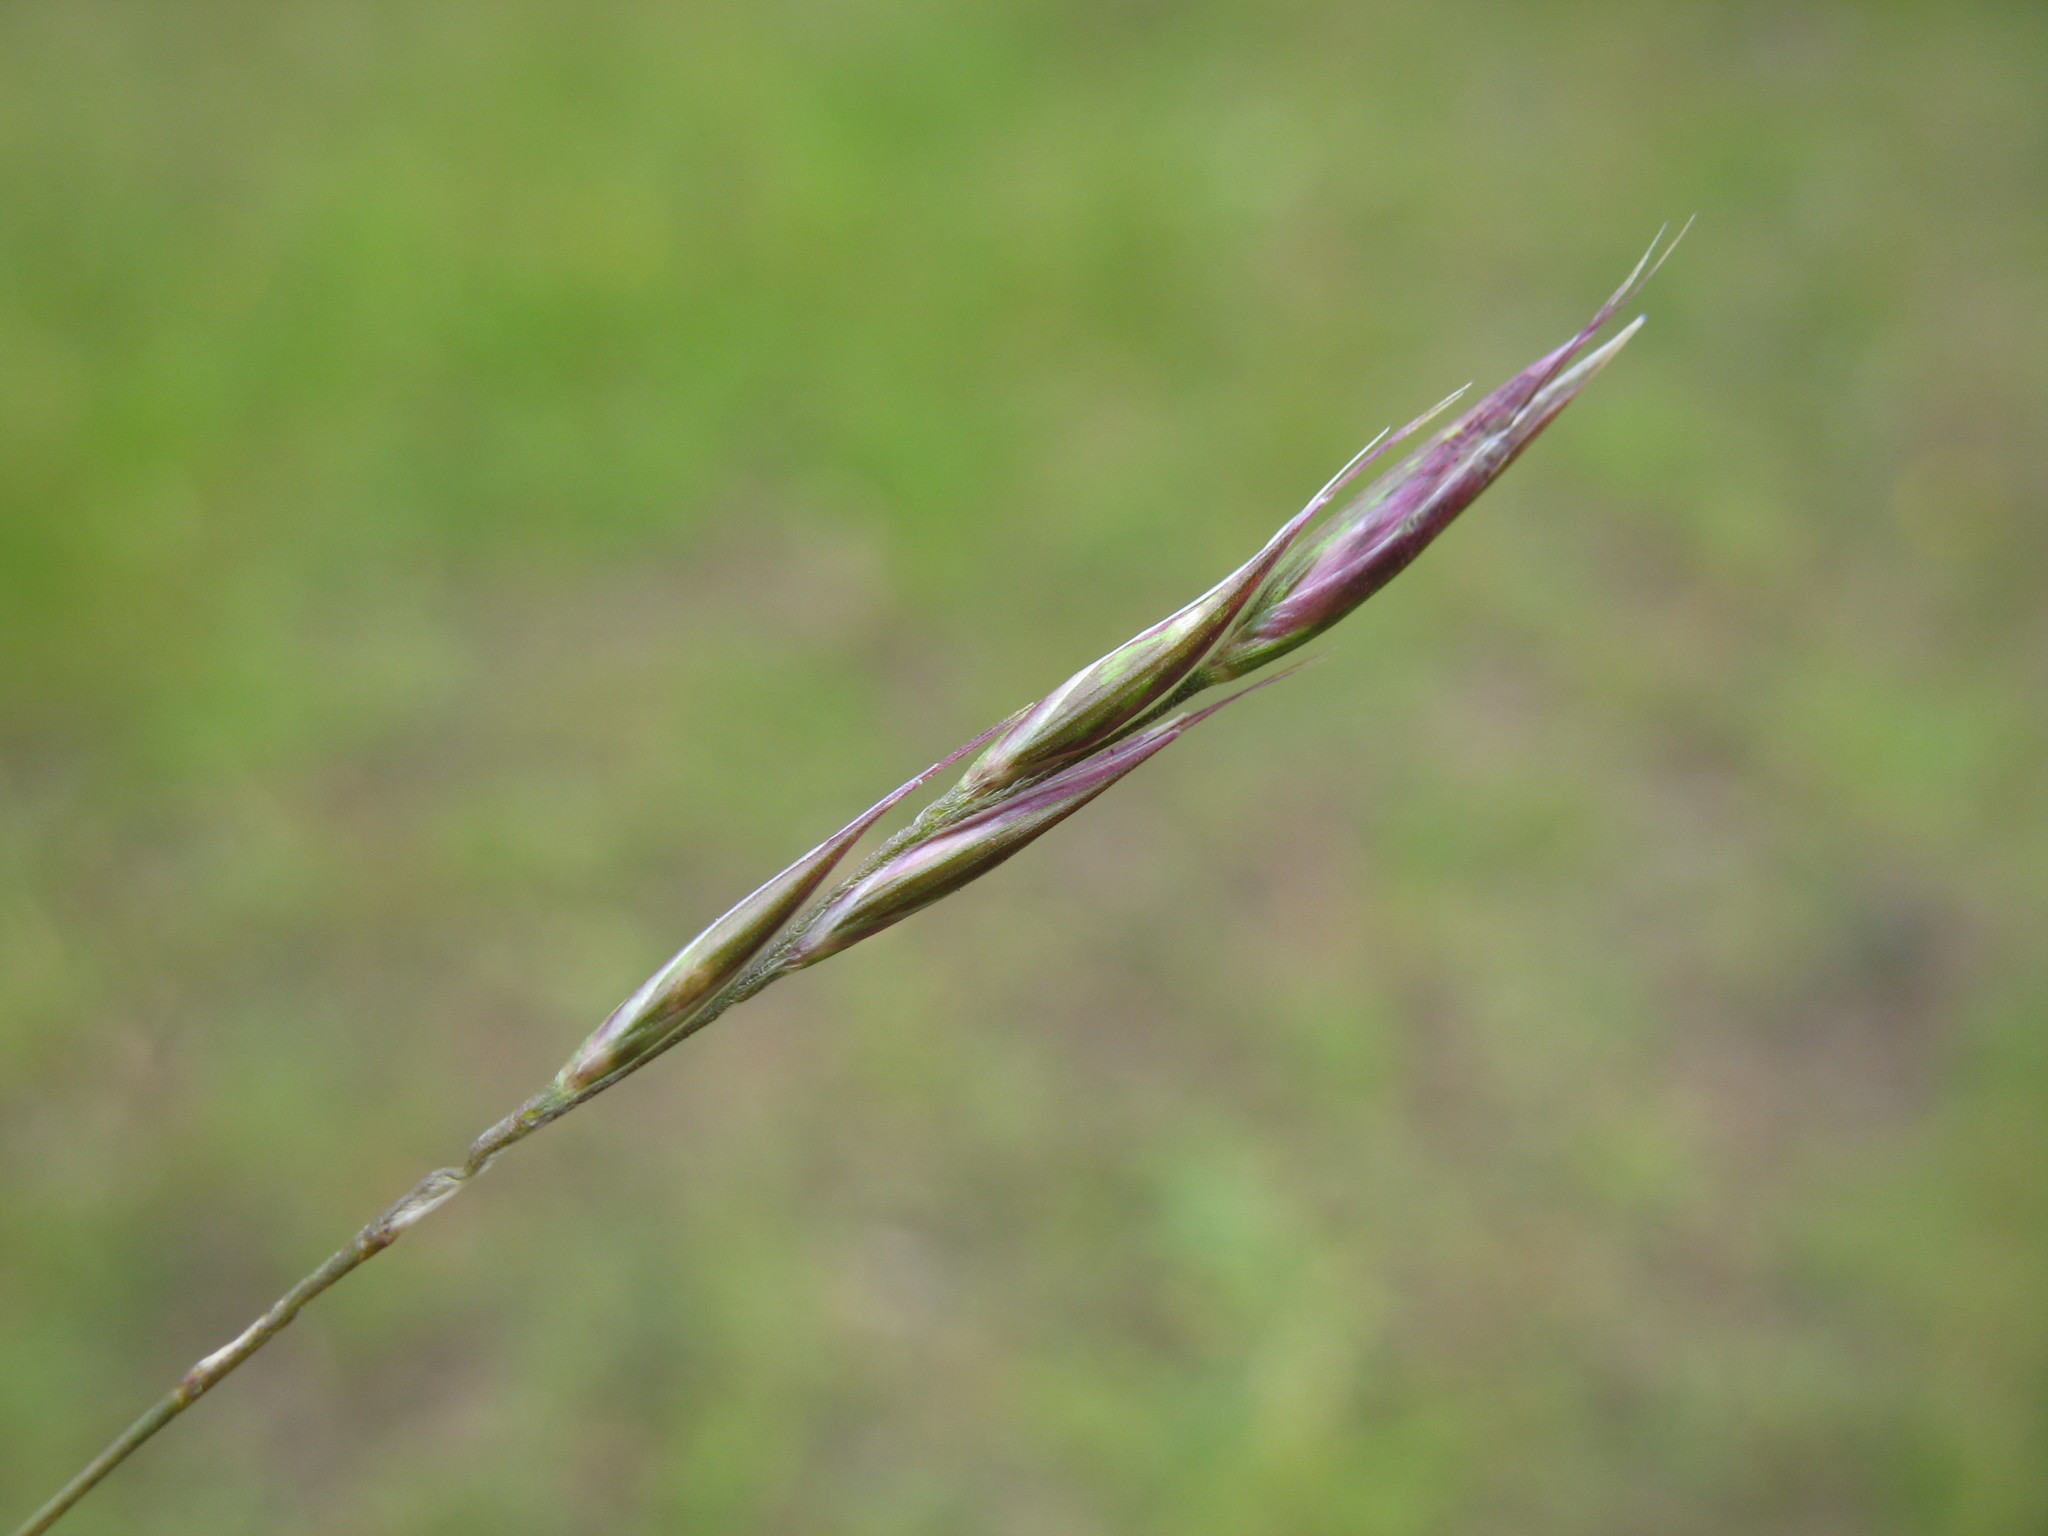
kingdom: Plantae
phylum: Tracheophyta
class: Liliopsida
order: Poales
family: Poaceae
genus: Rytidosperma
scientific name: Rytidosperma penicillatum
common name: Hairy wallaby grass
